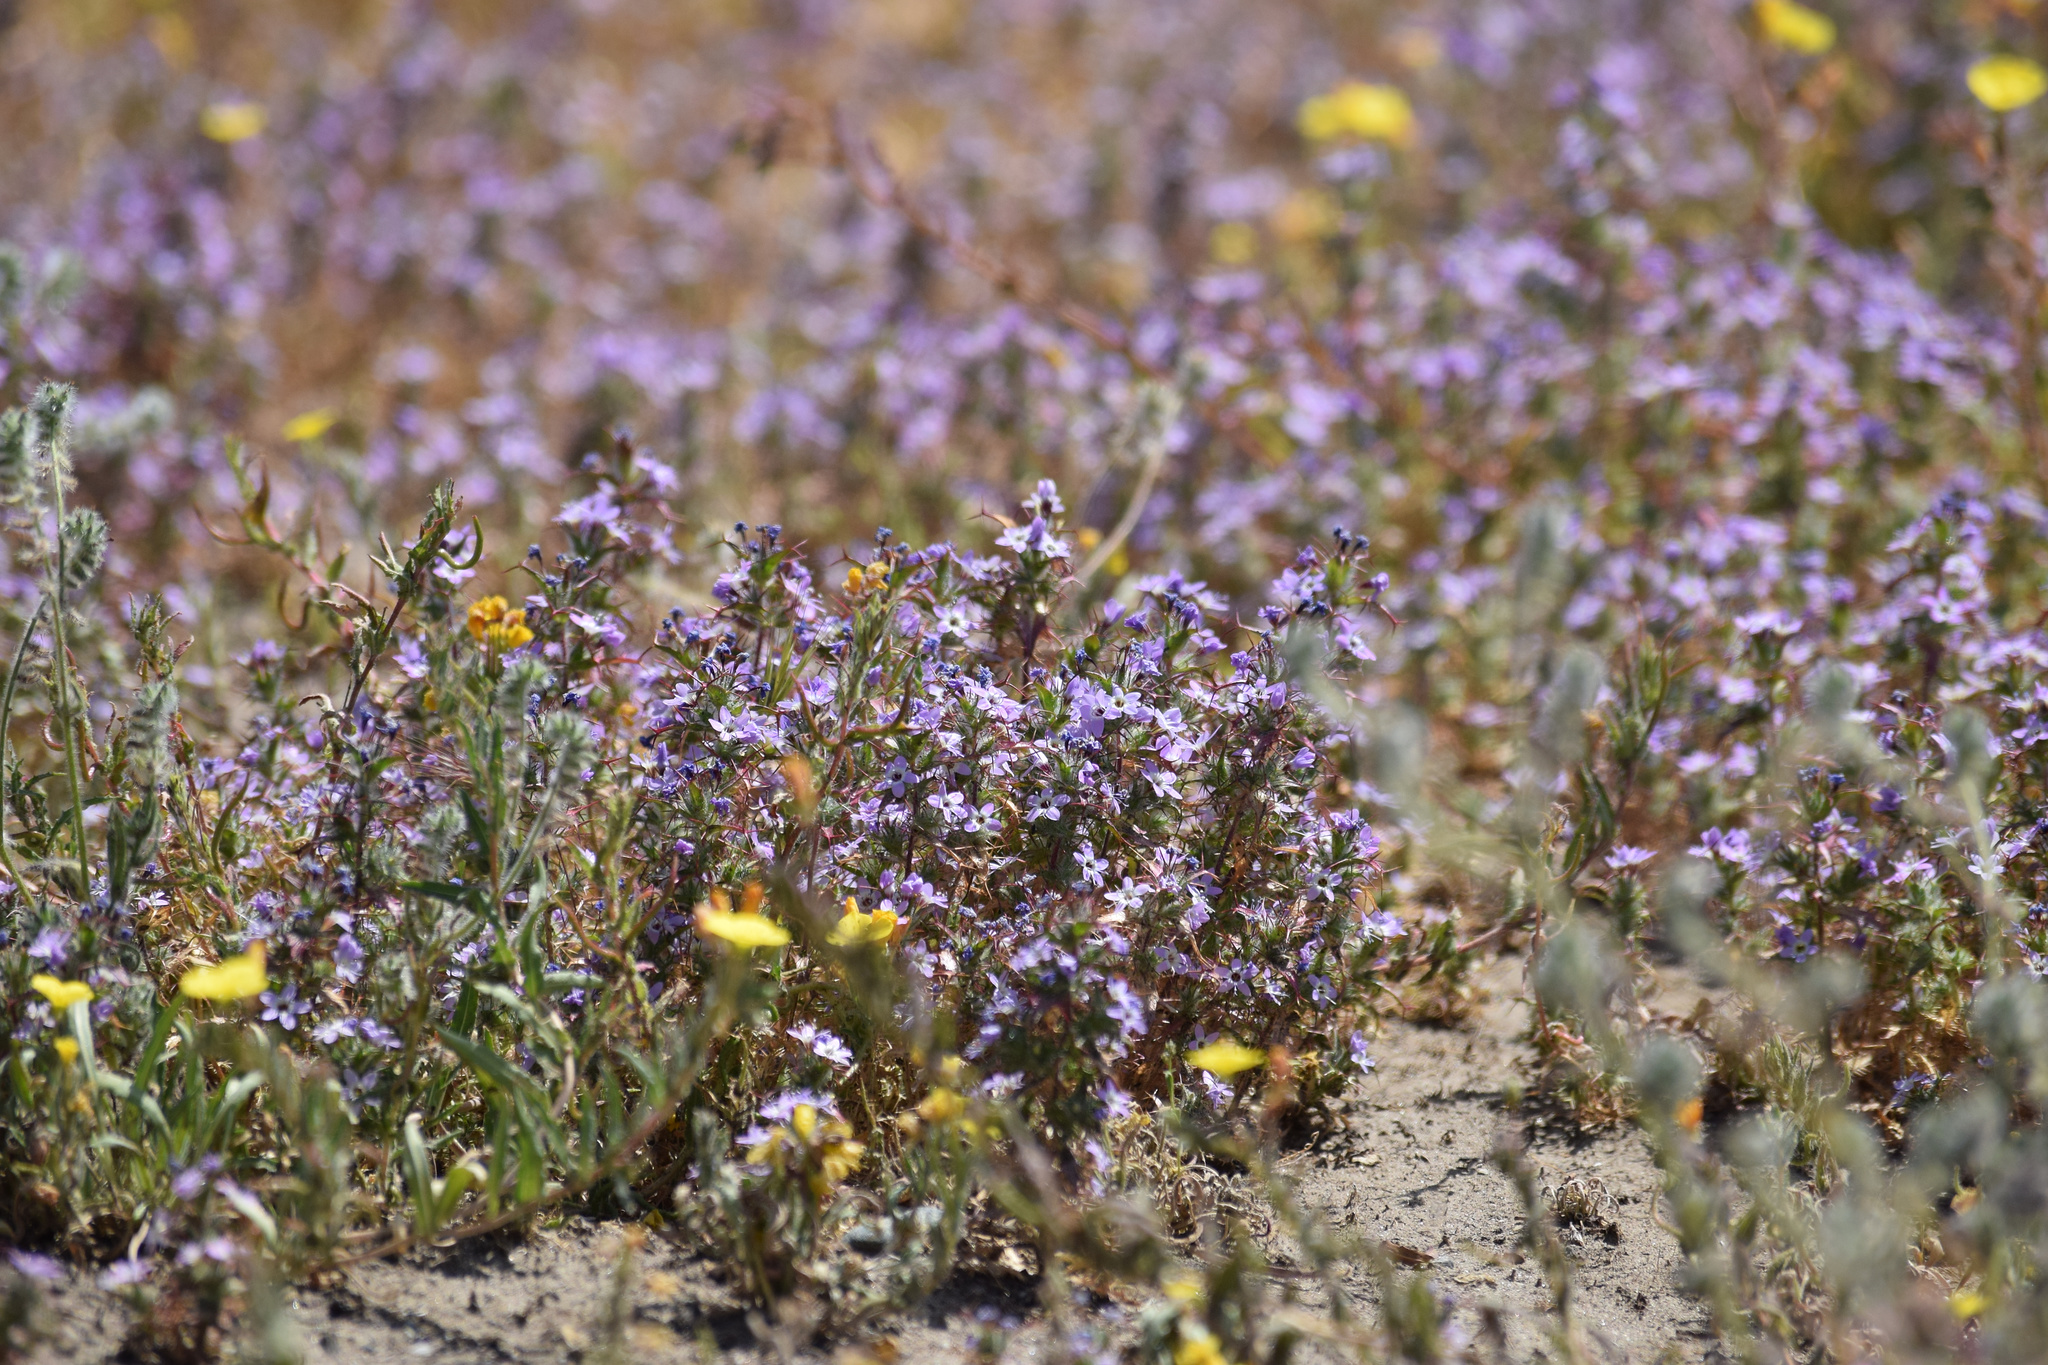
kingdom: Plantae
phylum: Tracheophyta
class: Magnoliopsida
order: Ericales
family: Polemoniaceae
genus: Navarretia
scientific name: Navarretia hamata
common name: Hooked navarretia
